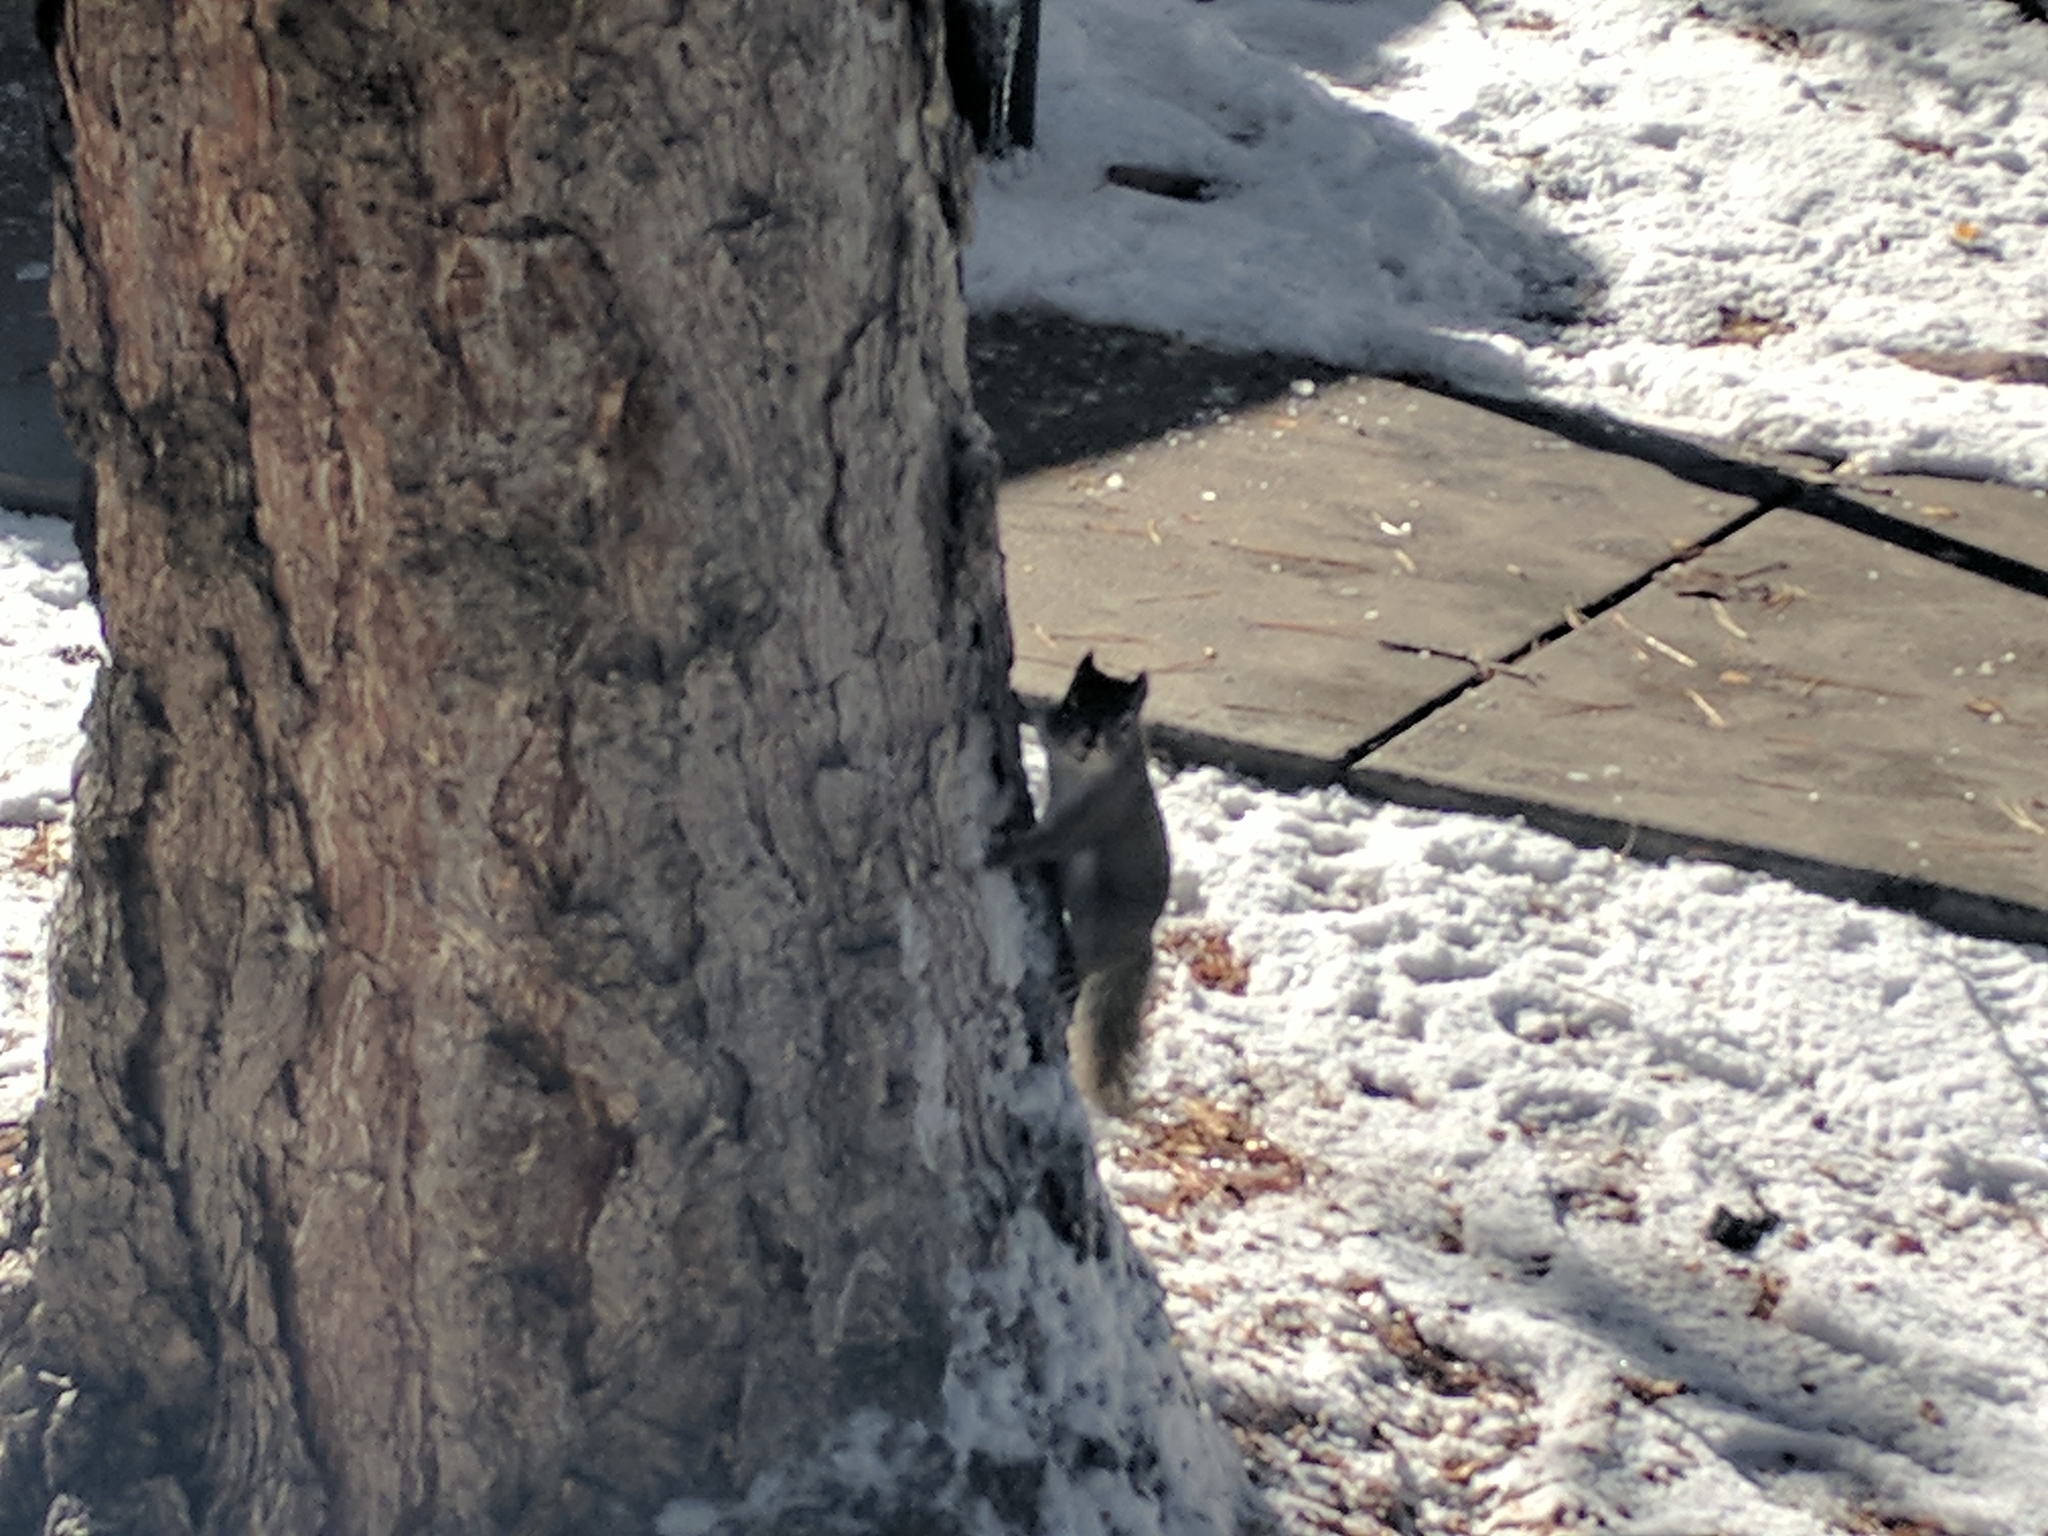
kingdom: Animalia
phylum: Chordata
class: Mammalia
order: Rodentia
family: Sciuridae
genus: Tamiasciurus
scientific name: Tamiasciurus hudsonicus
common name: Red squirrel
